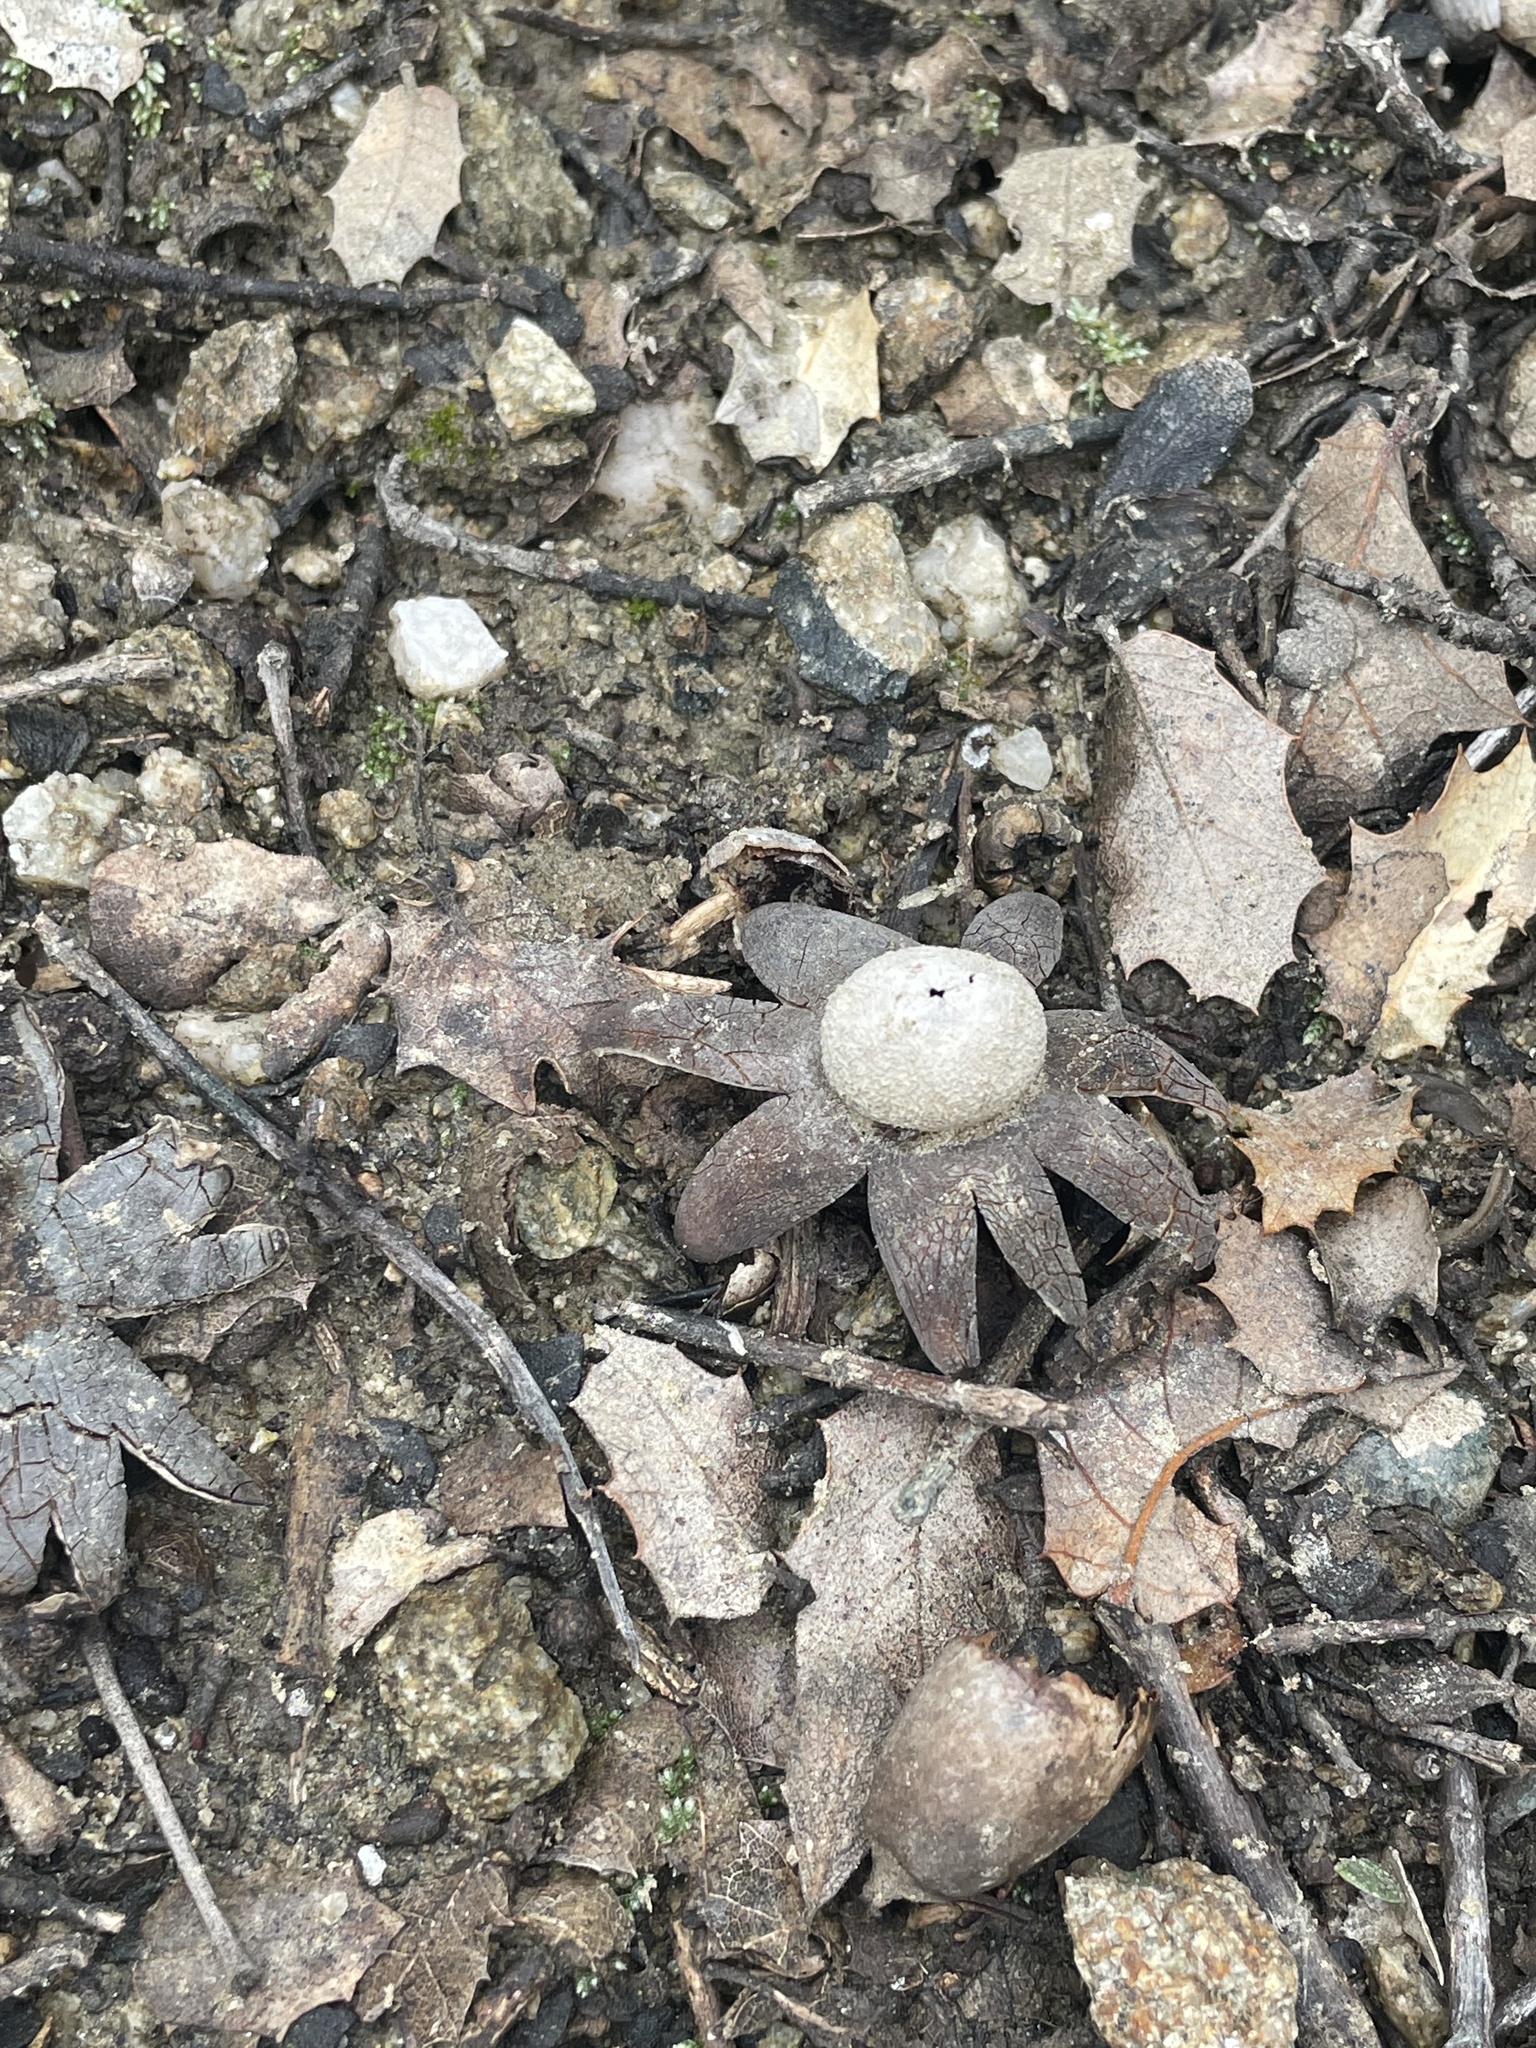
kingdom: Fungi
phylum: Basidiomycota
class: Agaricomycetes
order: Boletales
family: Diplocystidiaceae
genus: Astraeus
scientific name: Astraeus morganii
